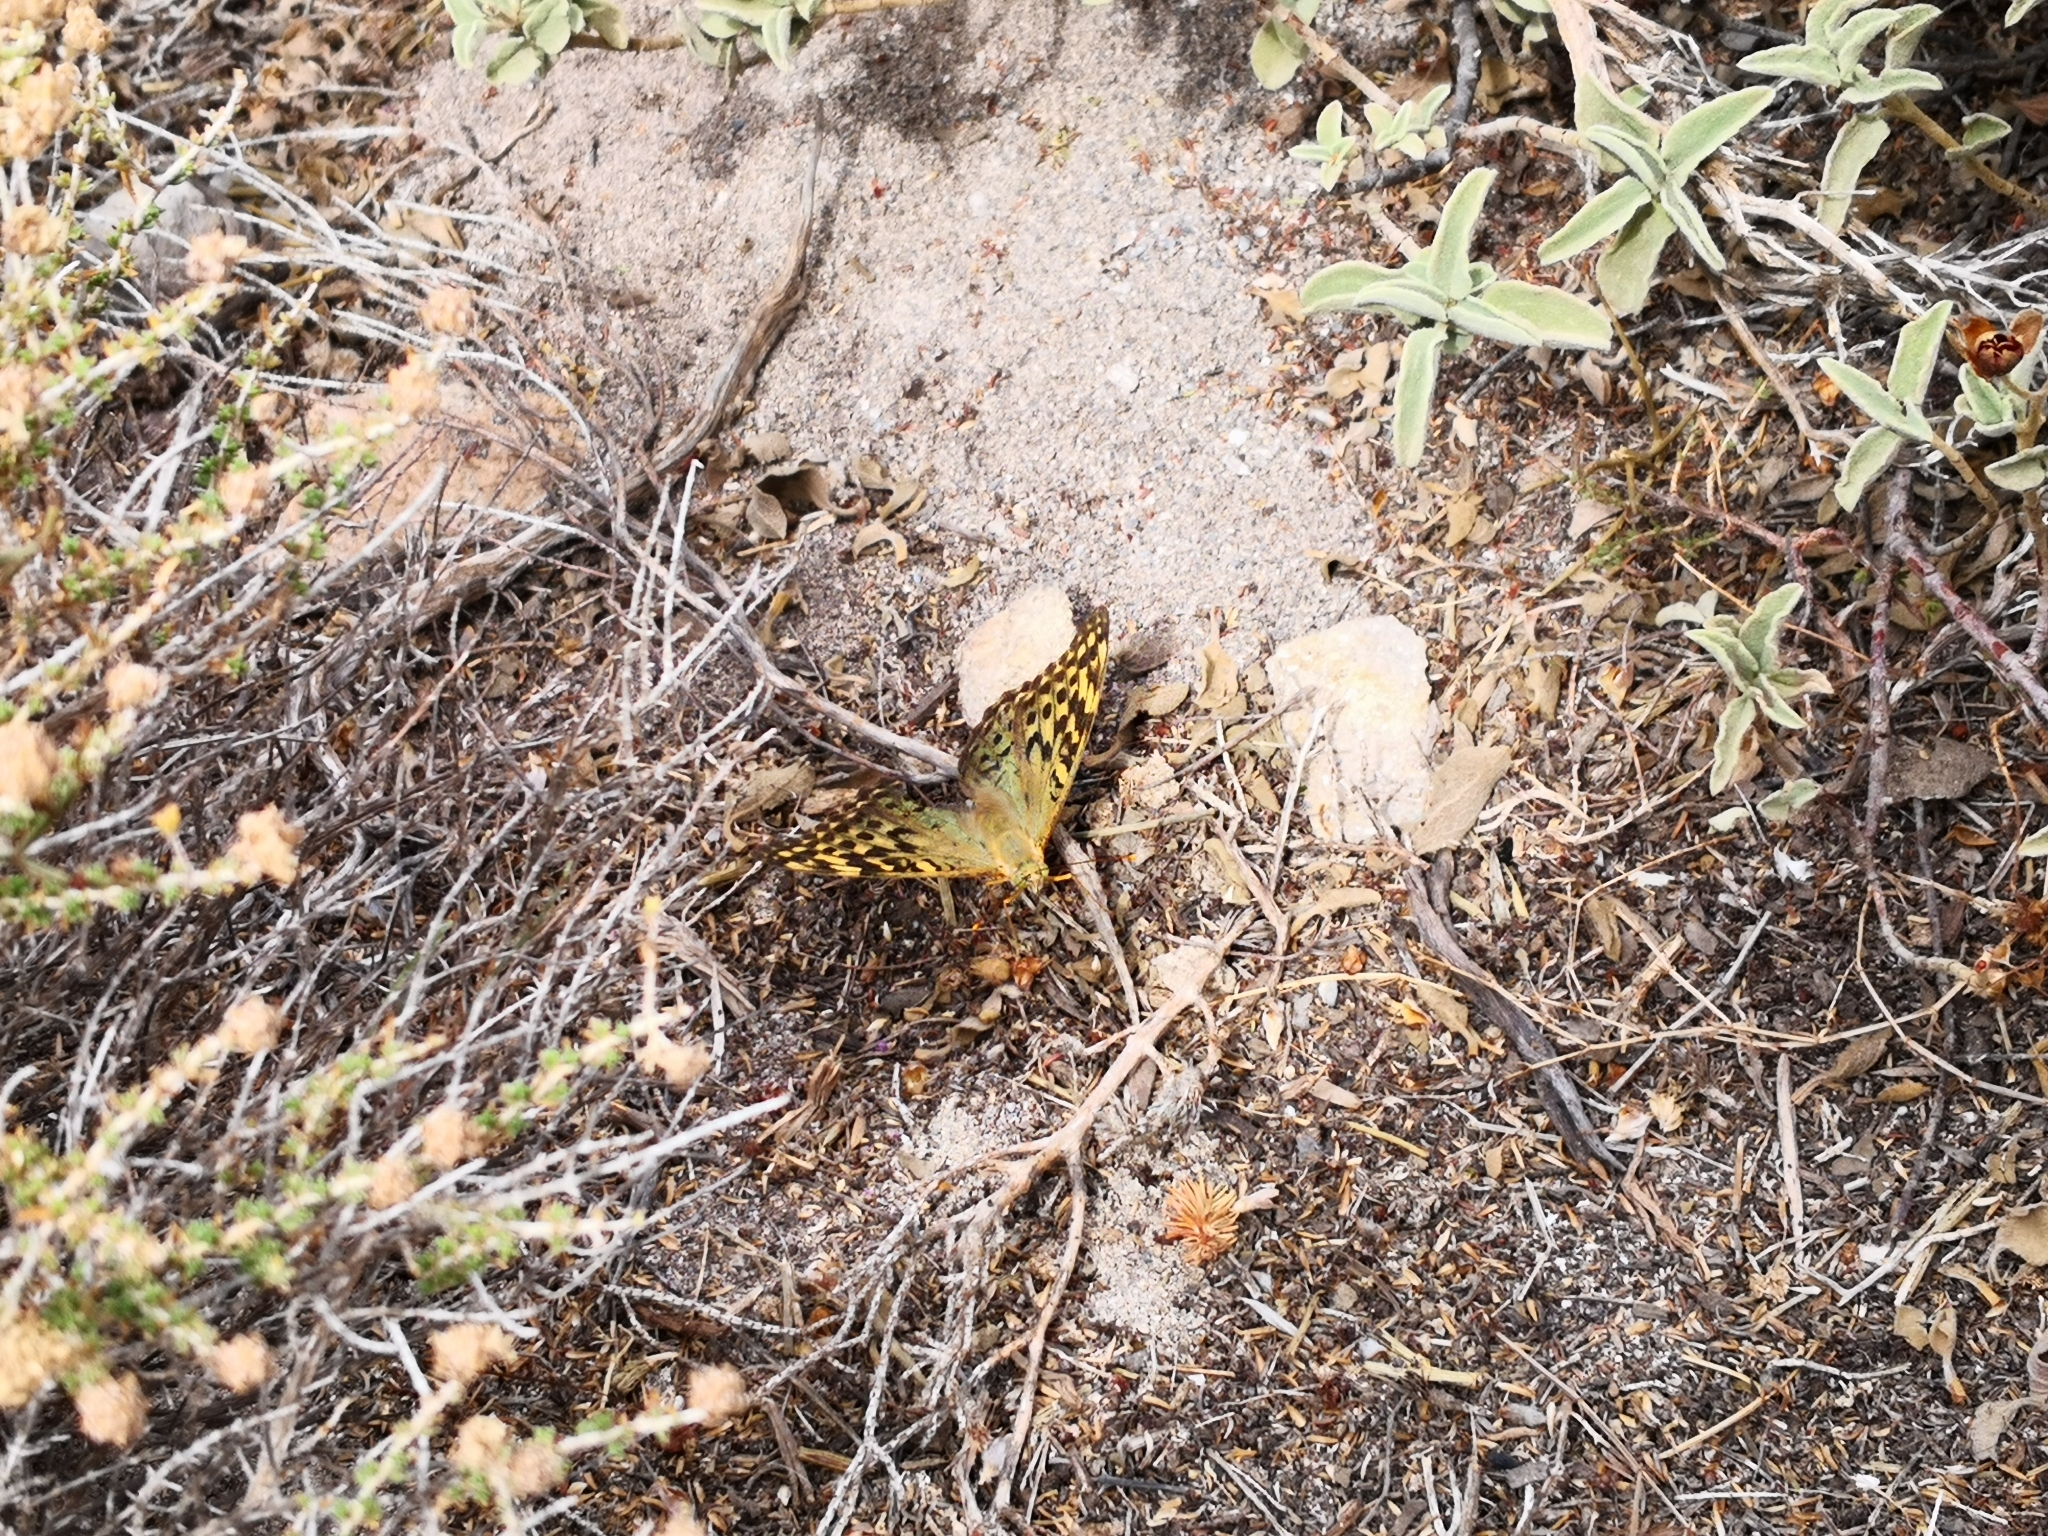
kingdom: Animalia
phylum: Arthropoda
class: Insecta
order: Lepidoptera
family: Nymphalidae
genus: Damora
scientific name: Damora pandora
